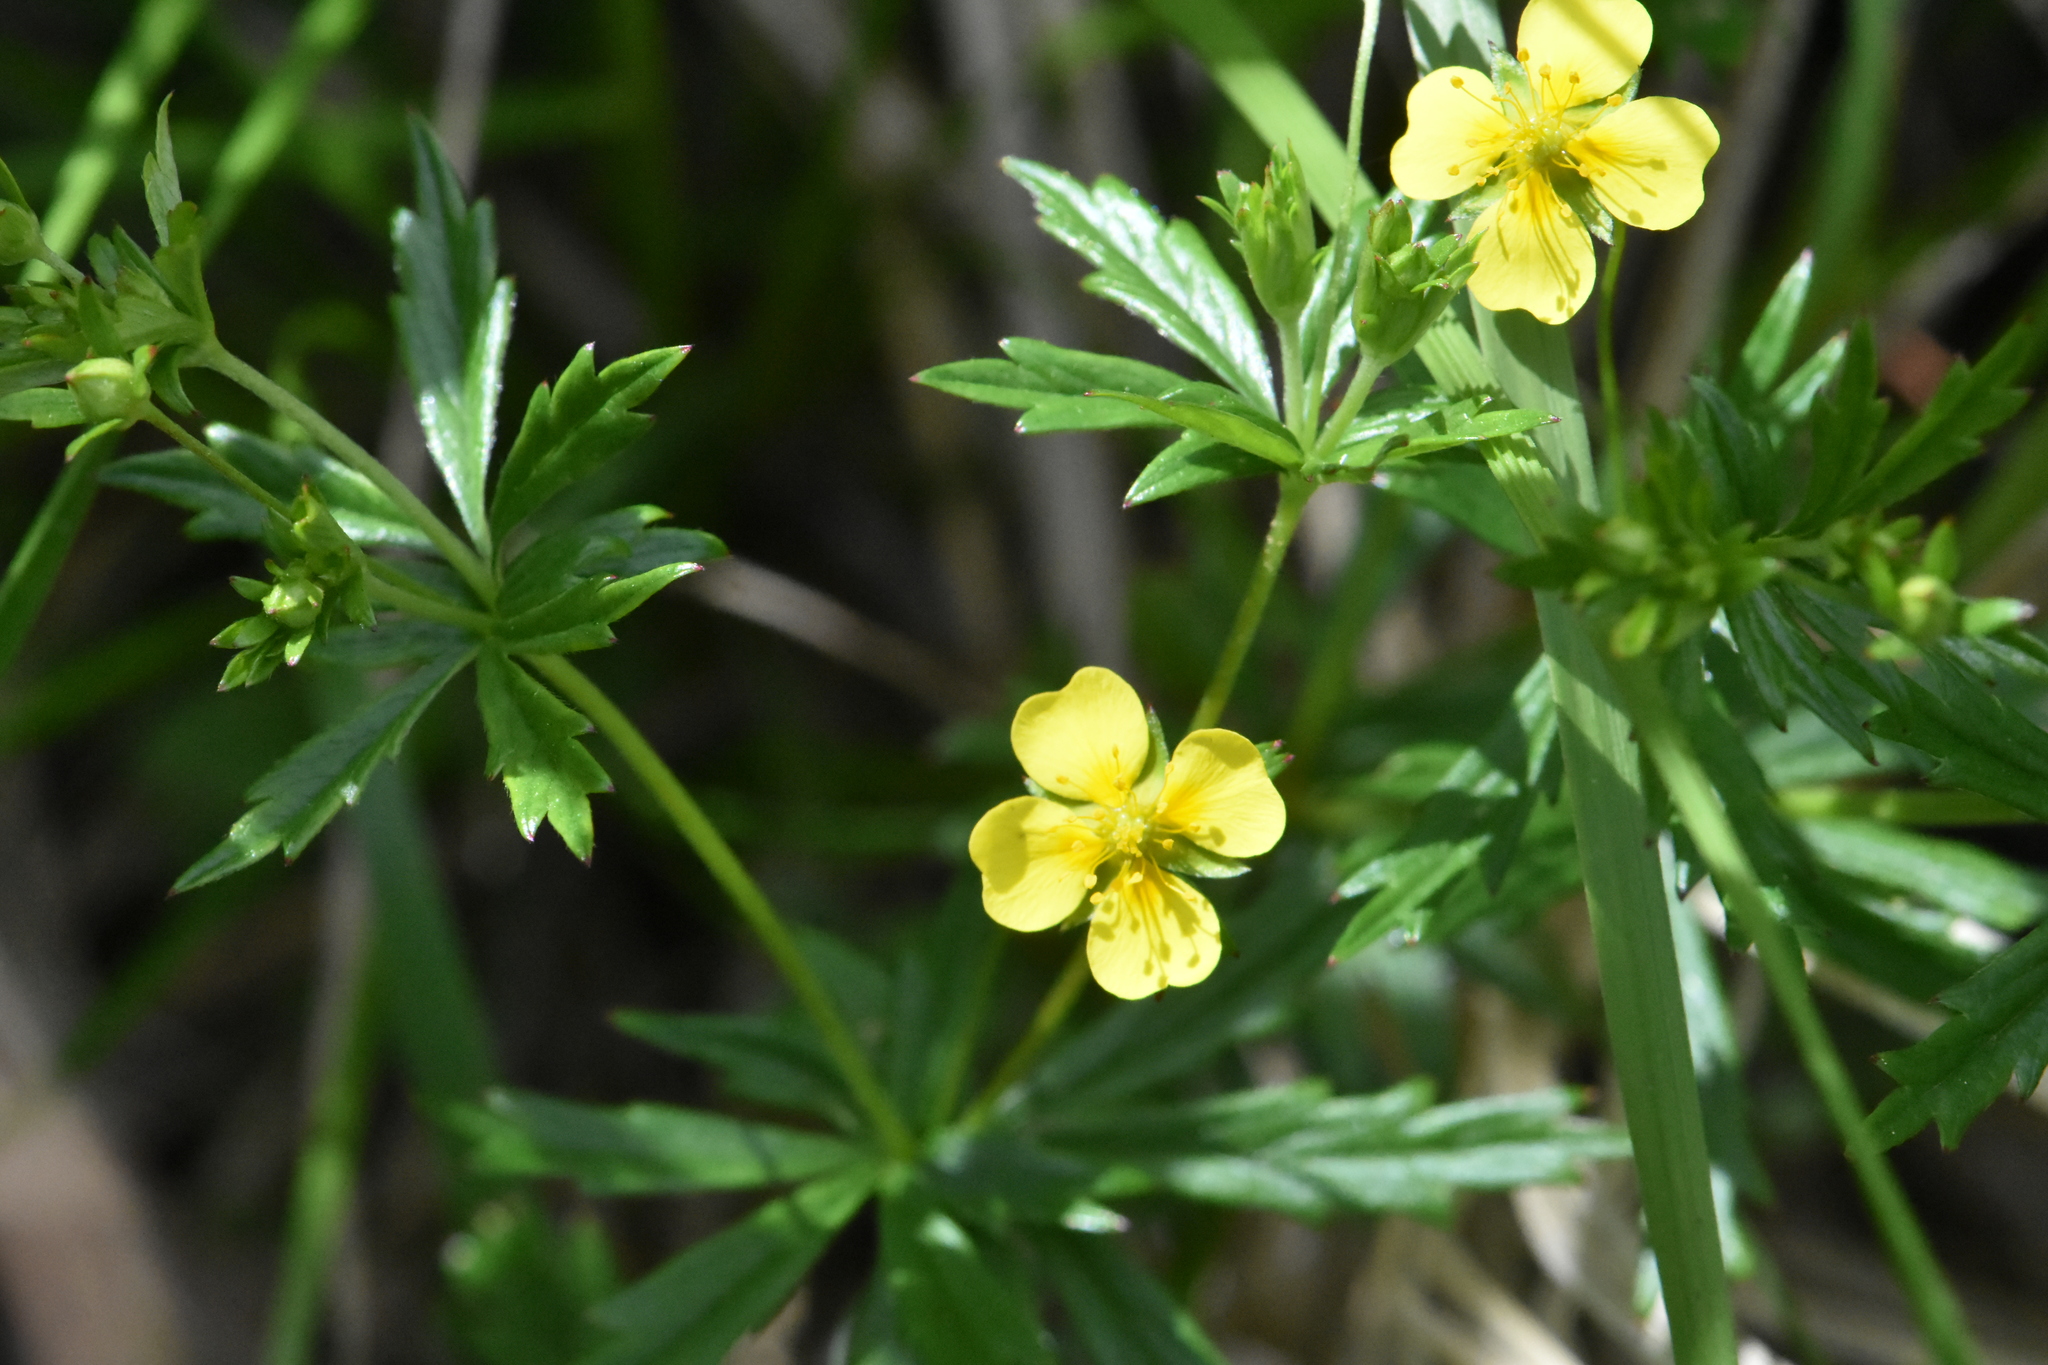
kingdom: Plantae
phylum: Tracheophyta
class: Magnoliopsida
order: Rosales
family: Rosaceae
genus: Potentilla
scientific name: Potentilla erecta
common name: Tormentil
